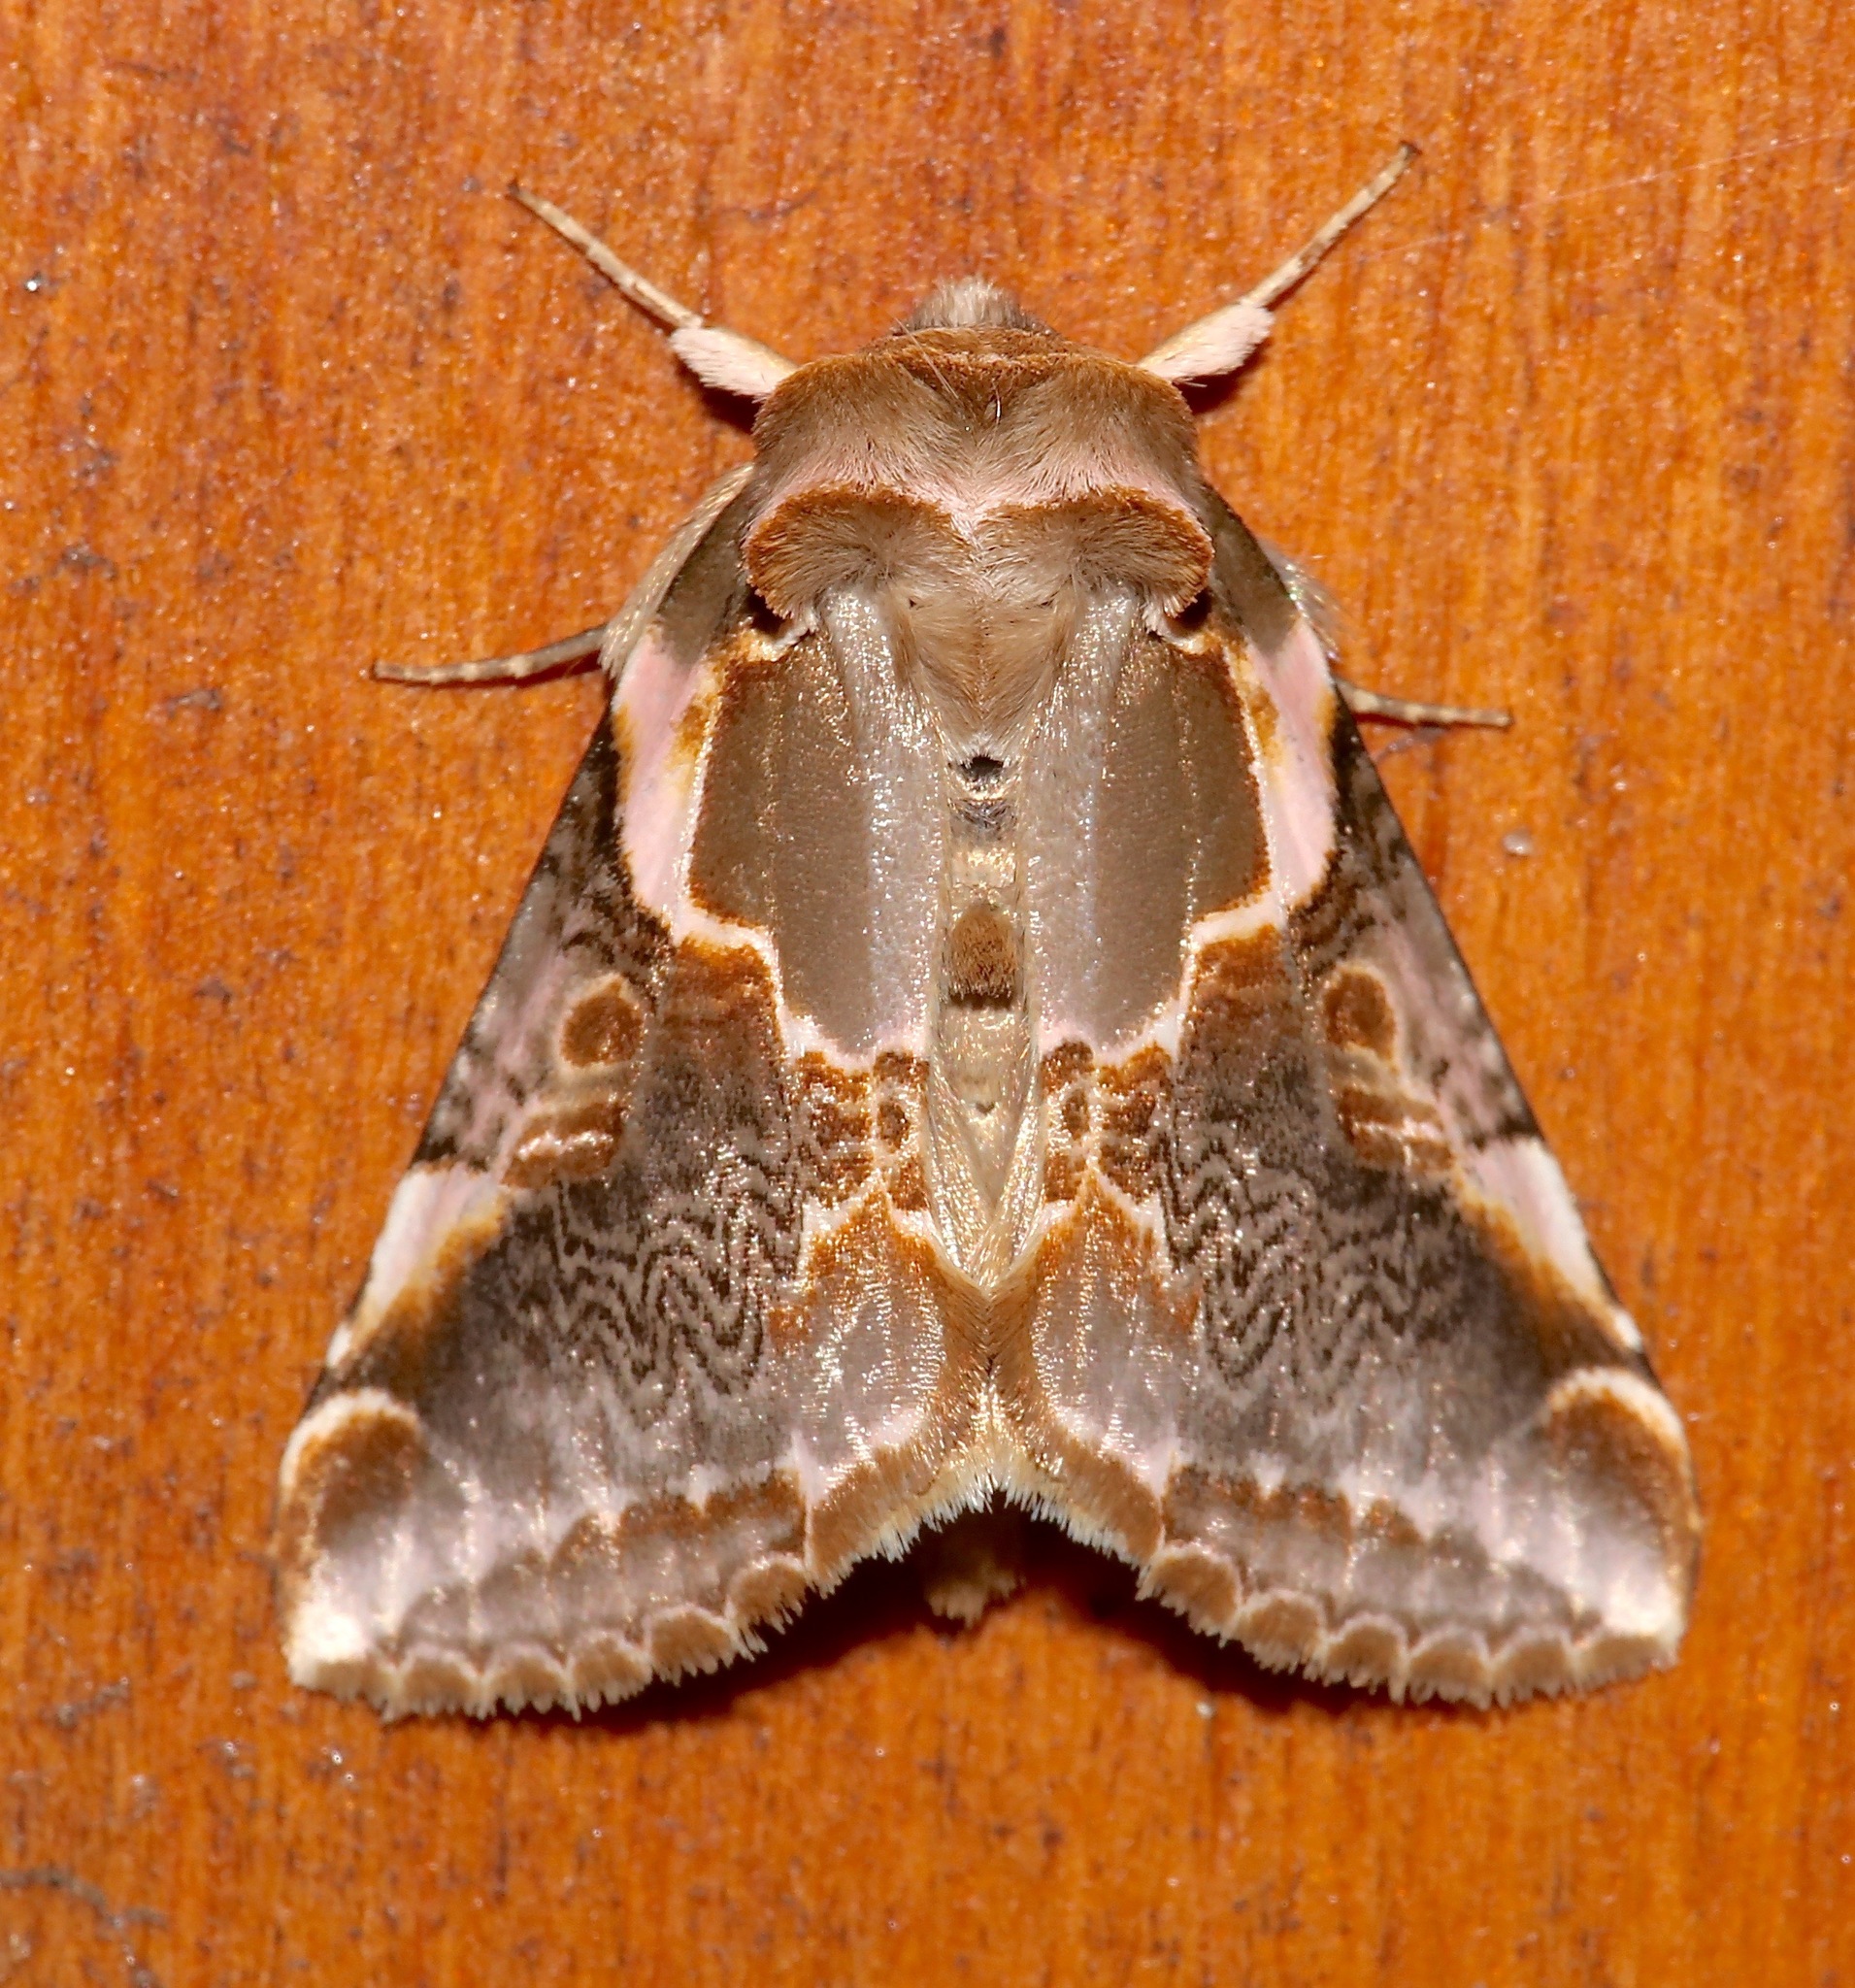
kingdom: Animalia
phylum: Arthropoda
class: Insecta
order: Lepidoptera
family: Drepanidae
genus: Habrosyne
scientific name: Habrosyne gloriosa
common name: Glorious habrosyne moth
